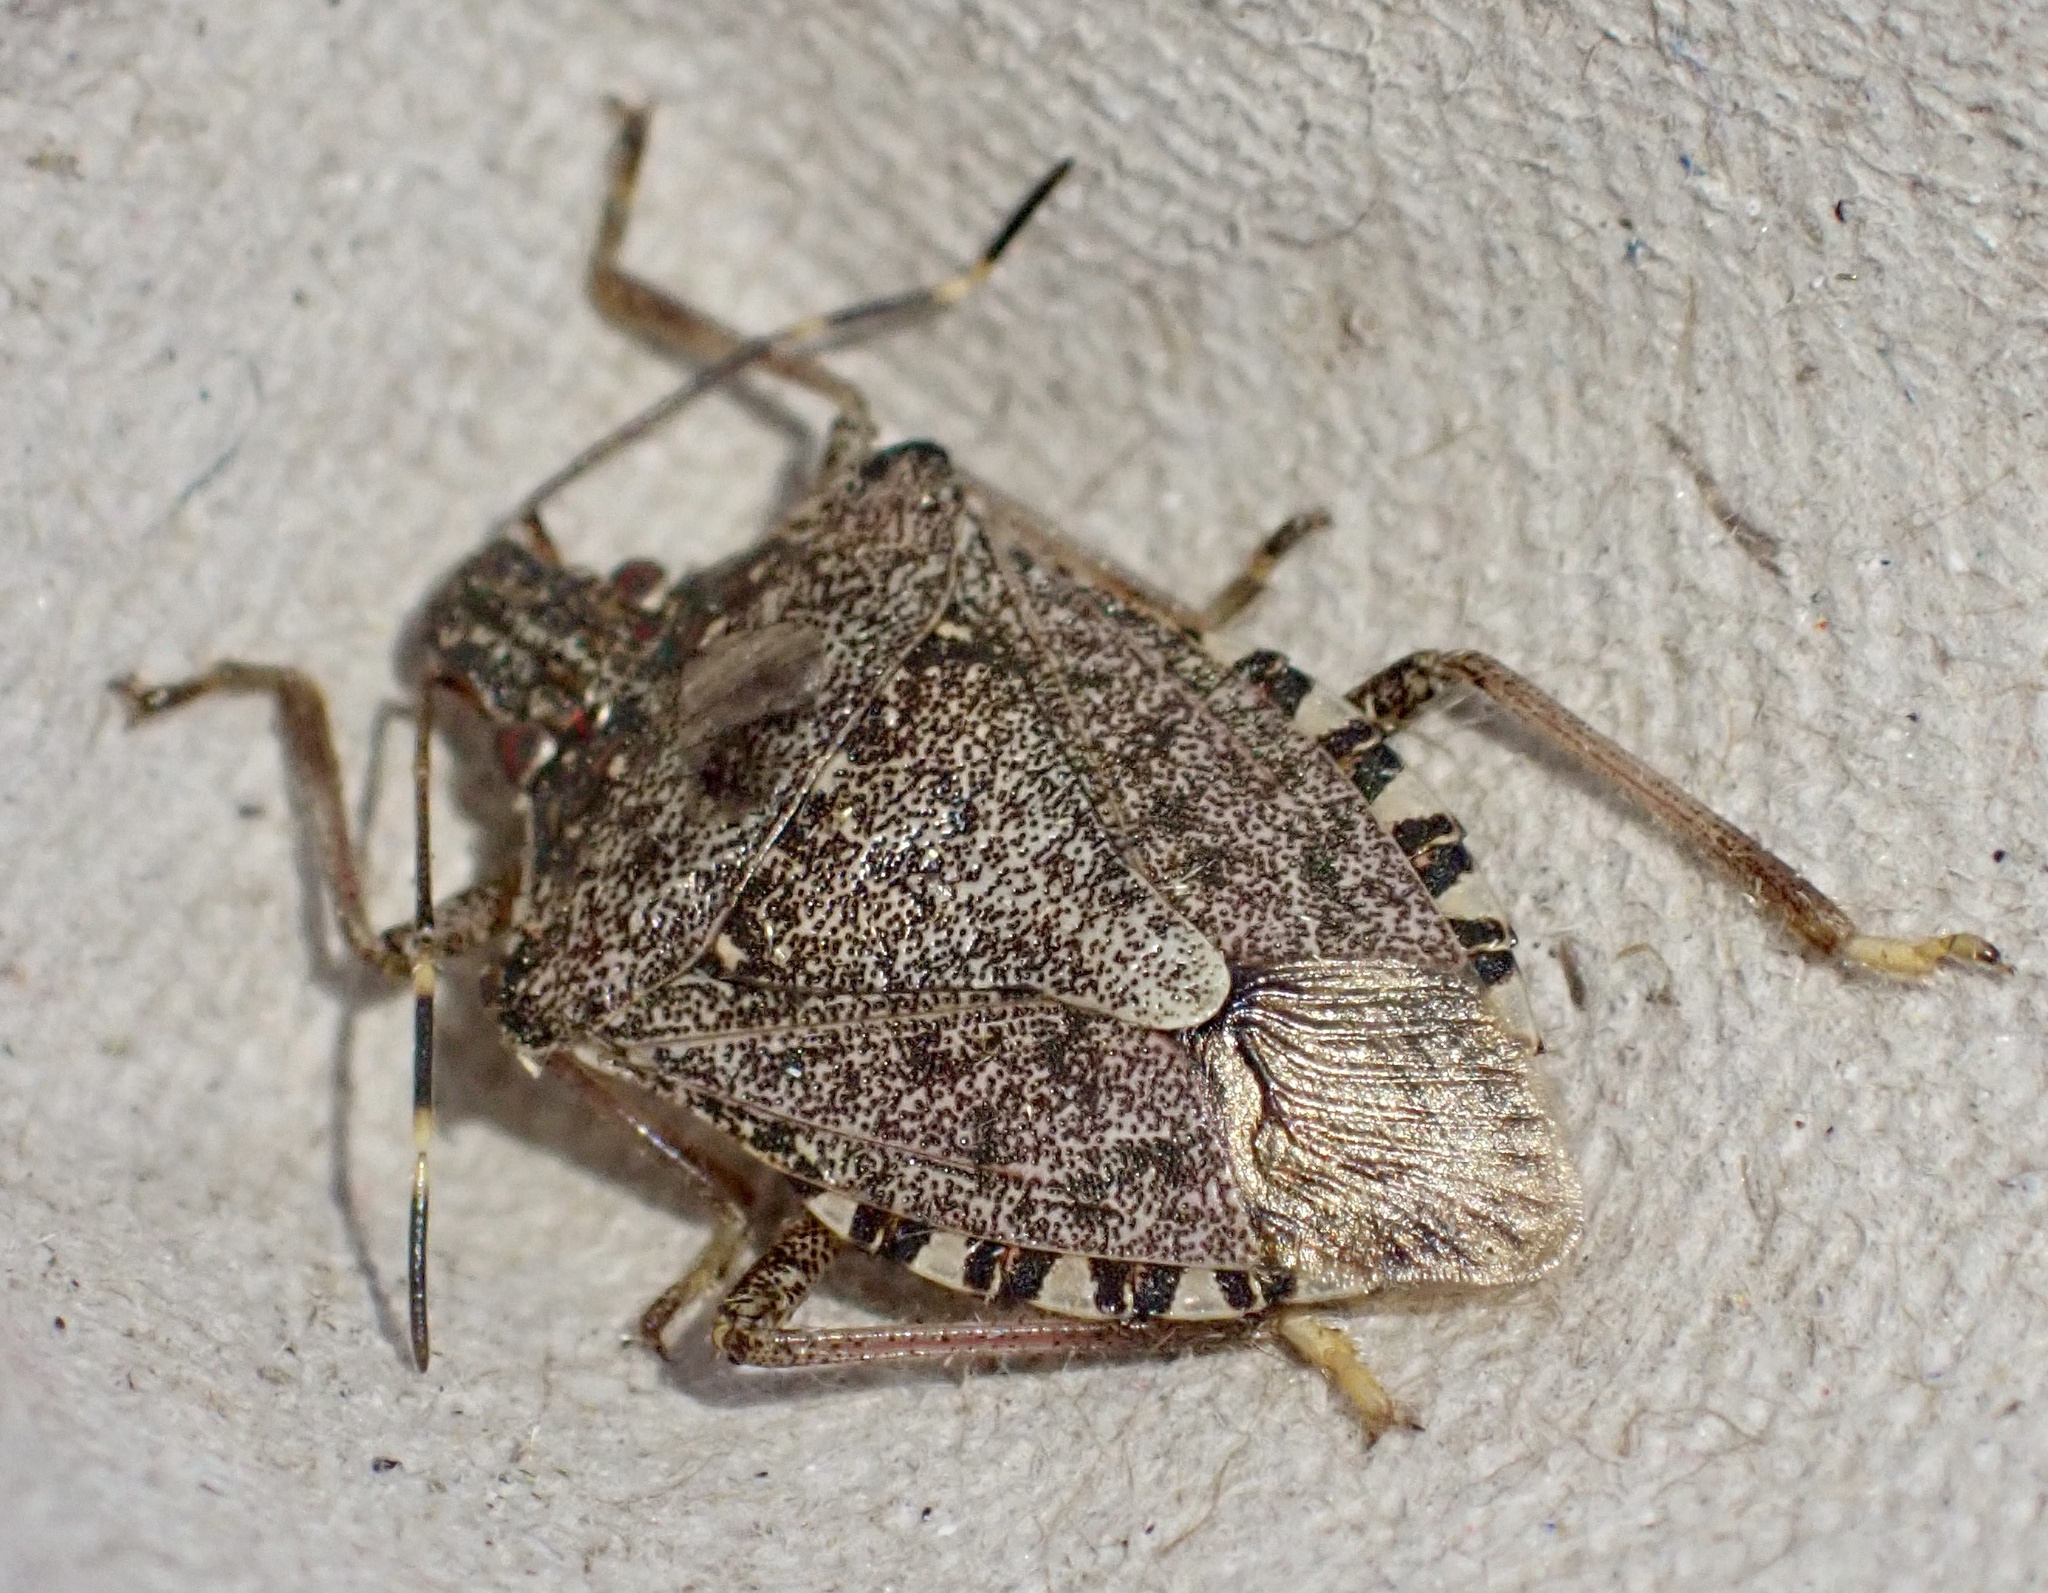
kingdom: Animalia
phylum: Arthropoda
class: Insecta
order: Hemiptera
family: Pentatomidae
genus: Halyomorpha
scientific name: Halyomorpha halys
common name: Brown marmorated stink bug
